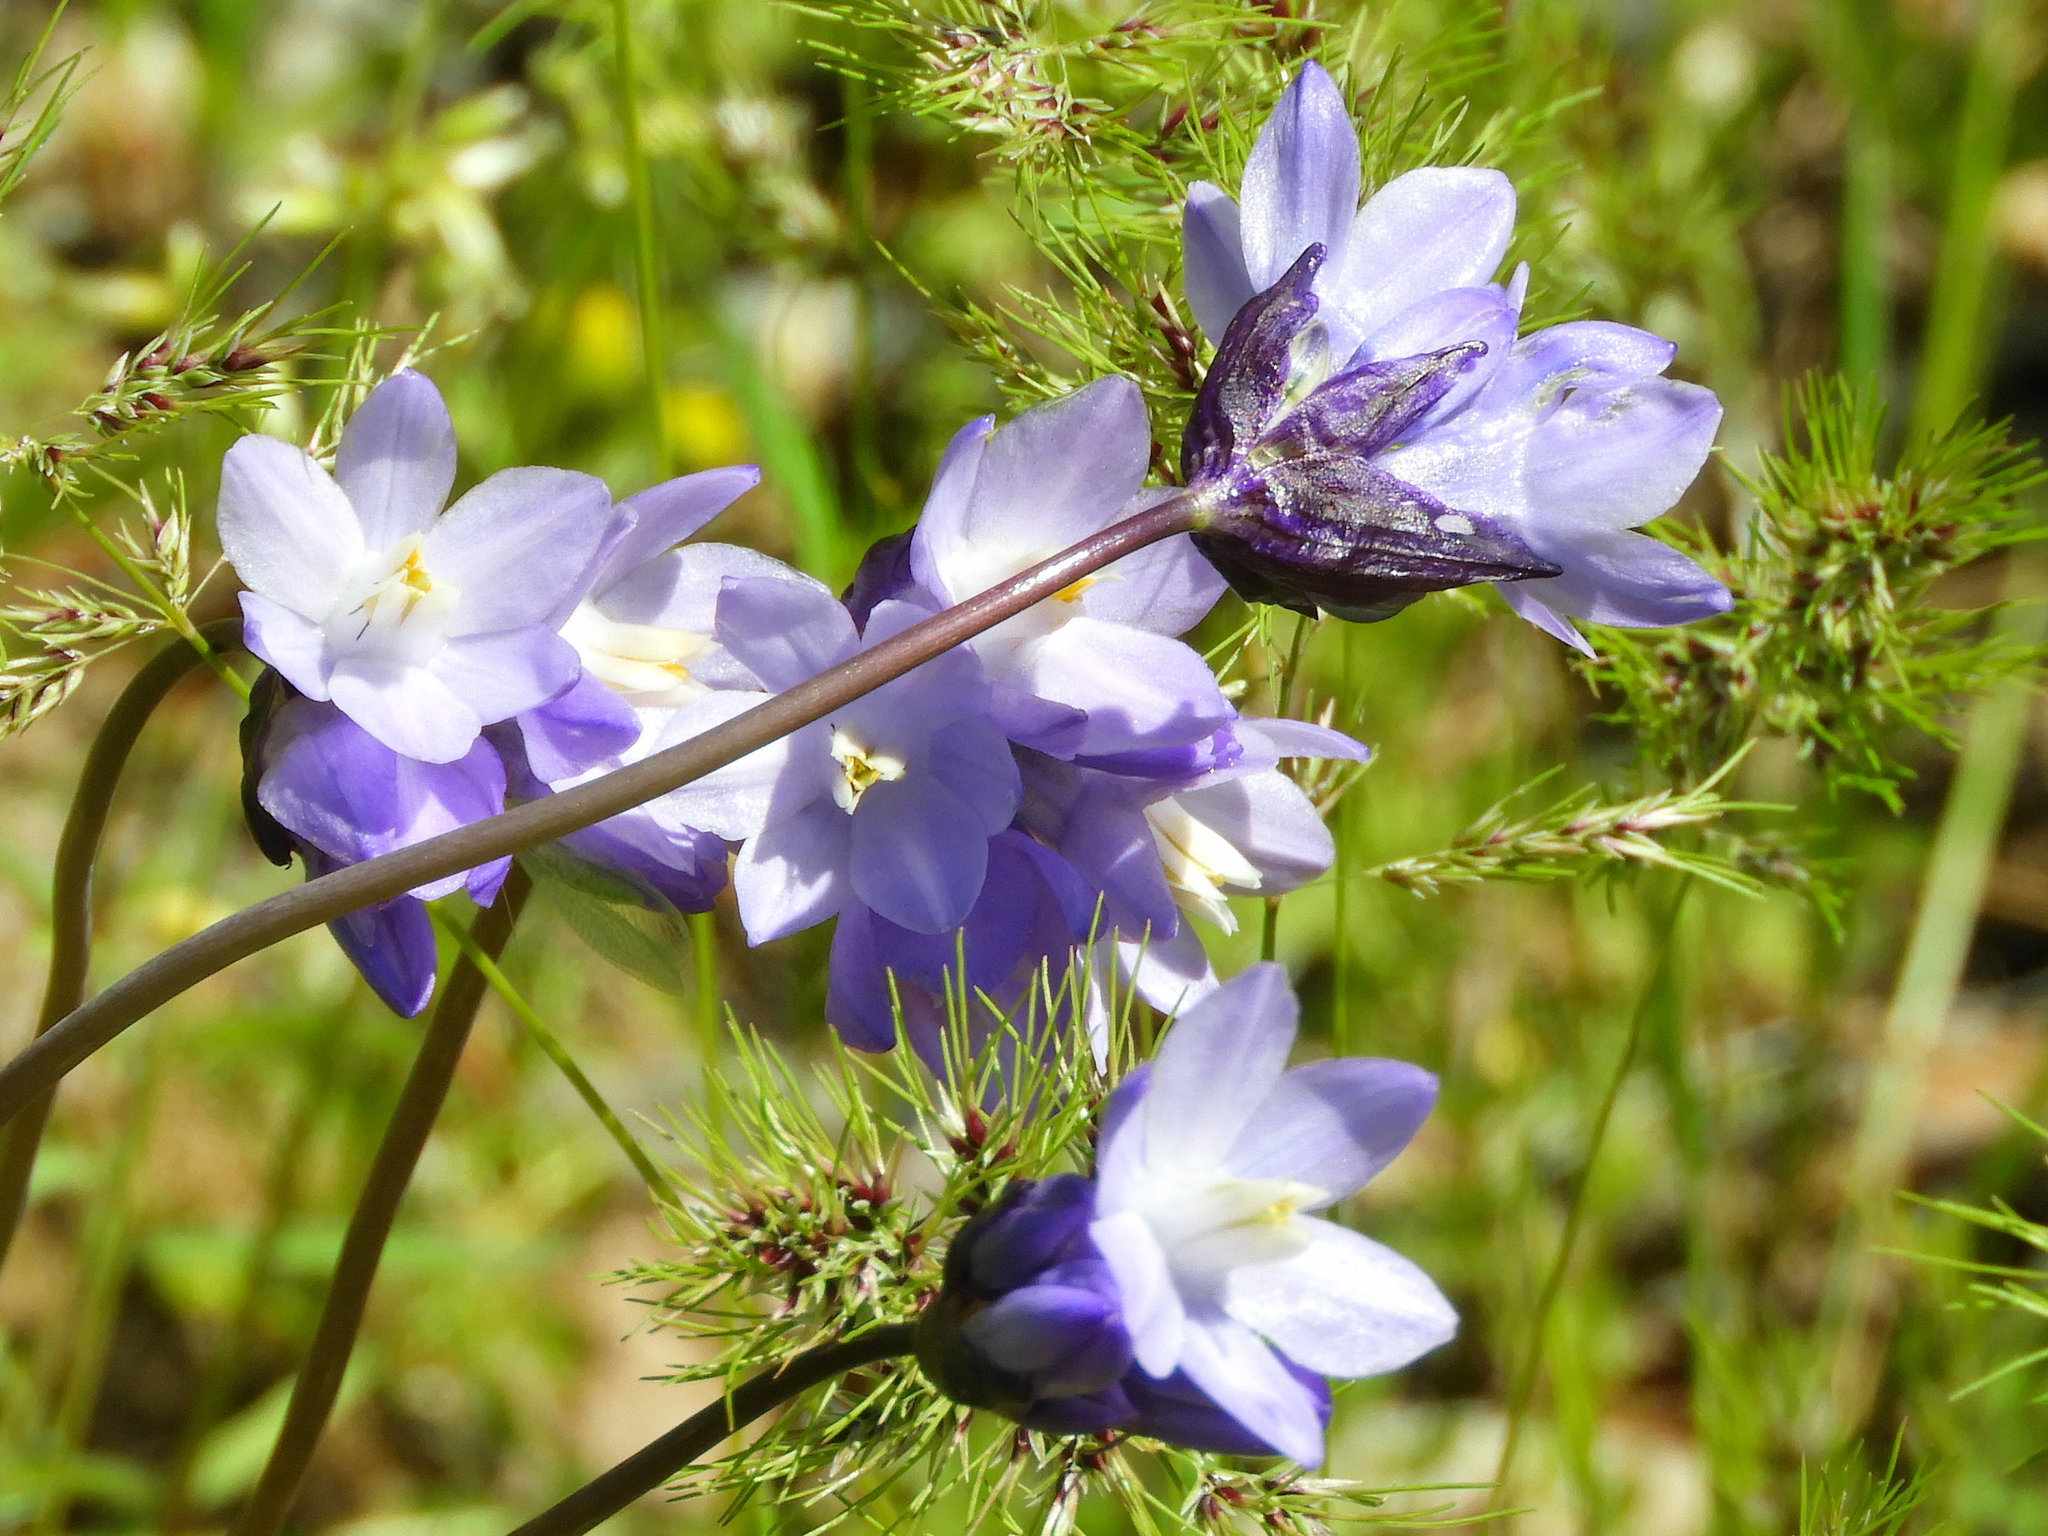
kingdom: Plantae
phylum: Tracheophyta
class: Liliopsida
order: Asparagales
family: Asparagaceae
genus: Dipterostemon
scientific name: Dipterostemon capitatus
